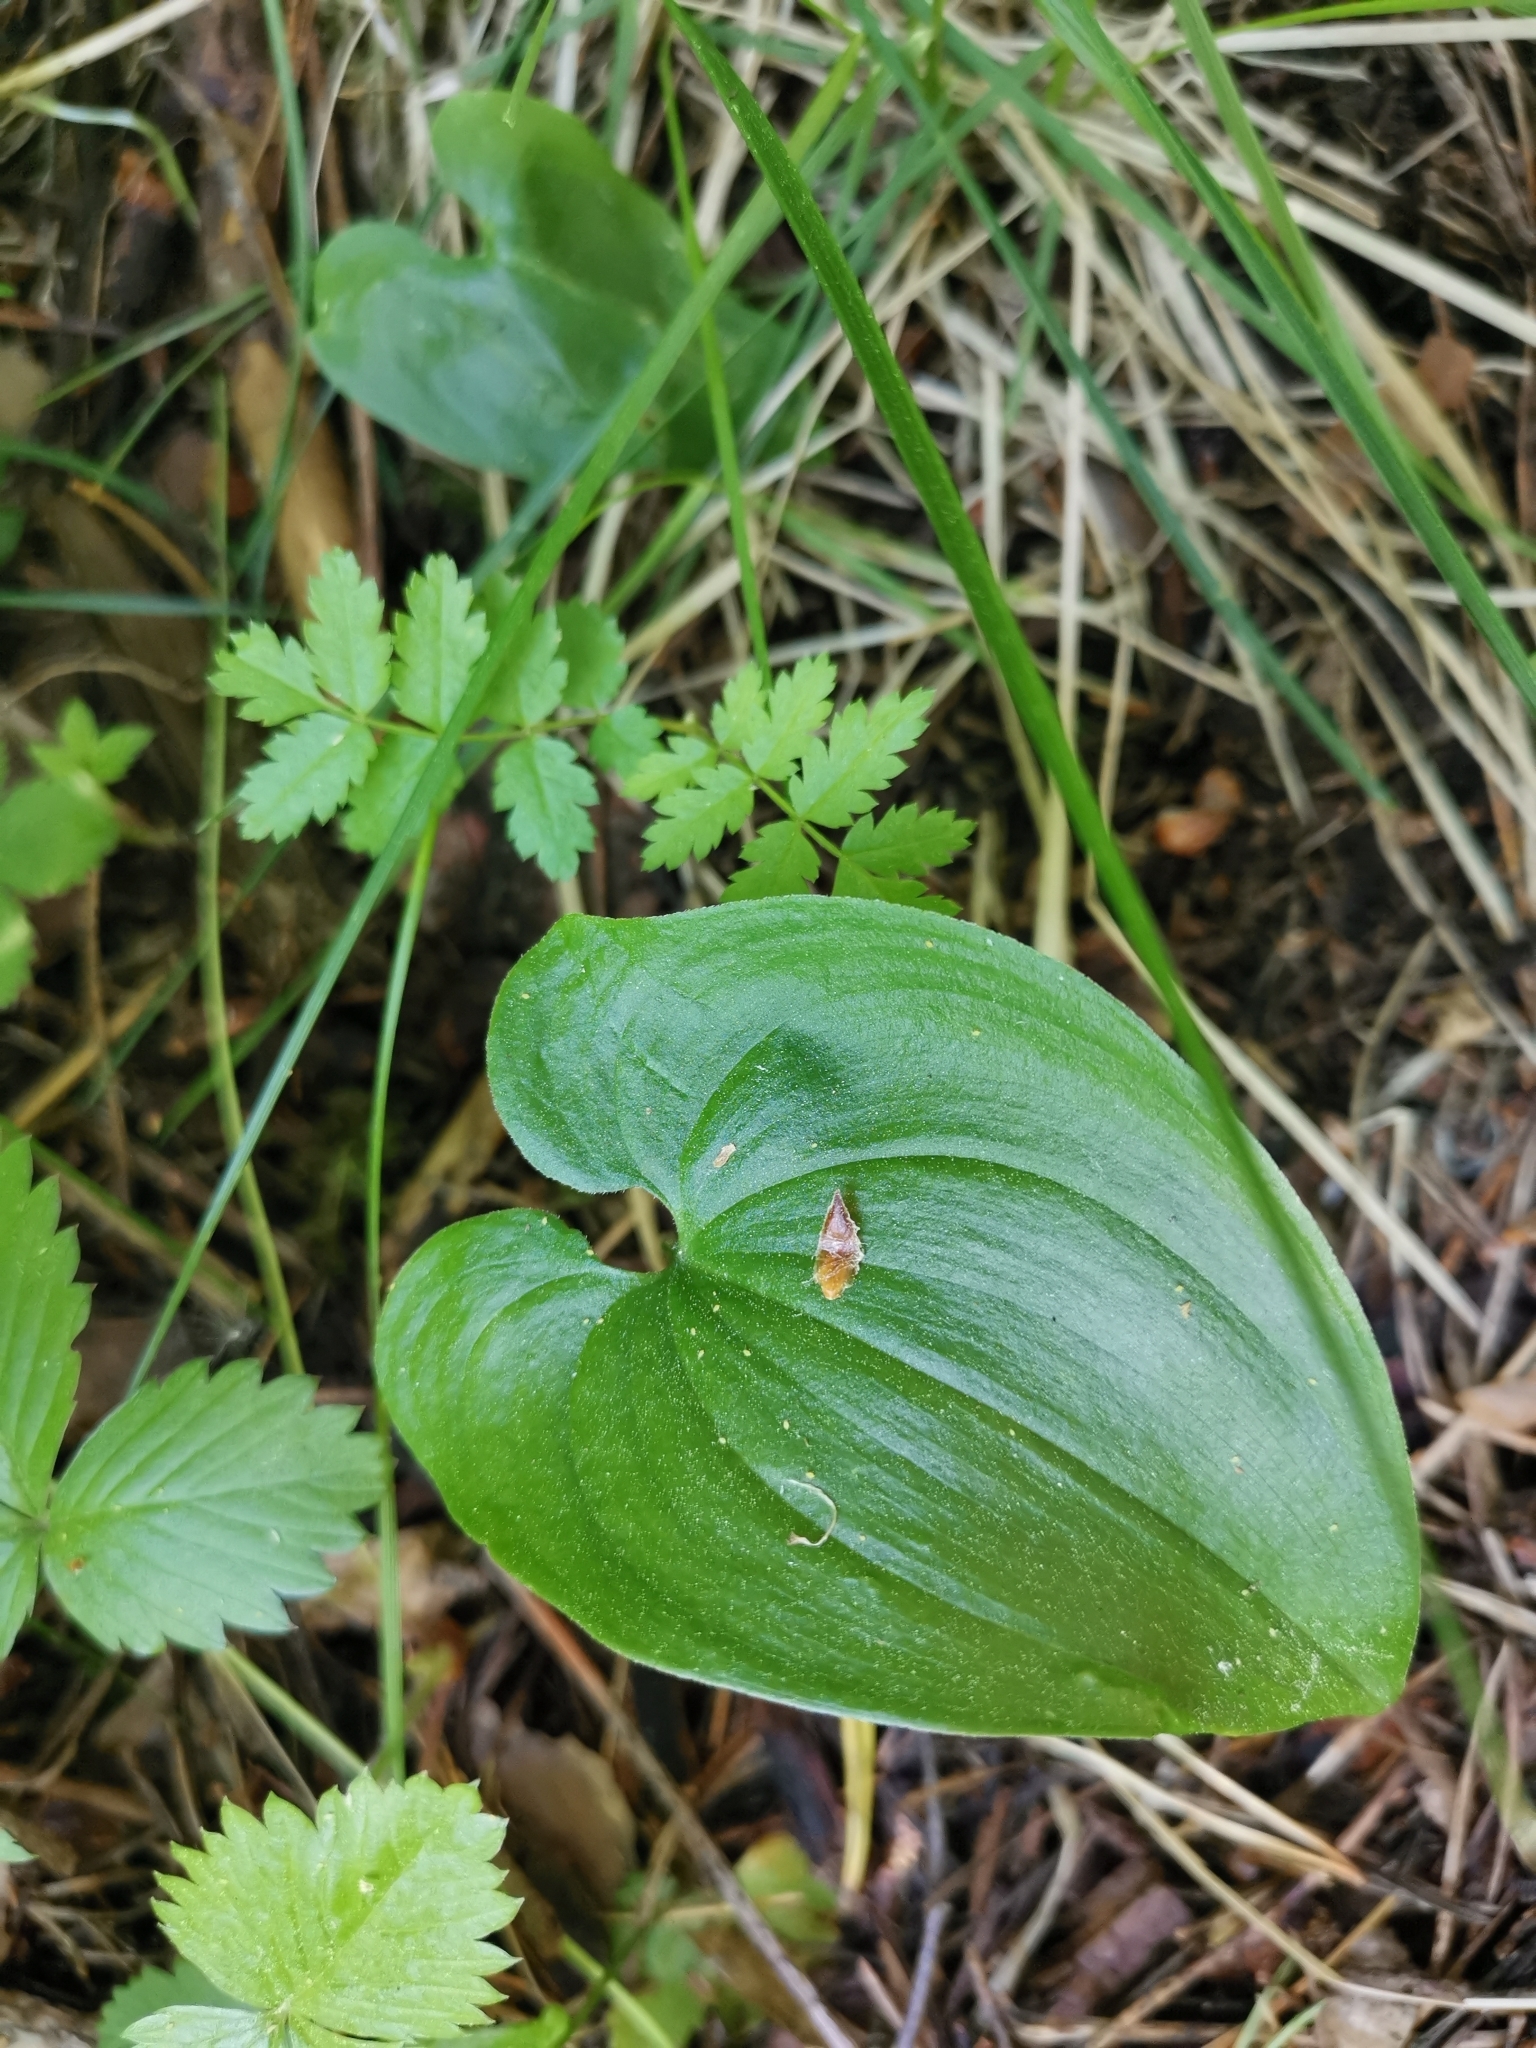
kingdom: Plantae
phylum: Tracheophyta
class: Liliopsida
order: Asparagales
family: Asparagaceae
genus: Maianthemum
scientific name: Maianthemum bifolium
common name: May lily
